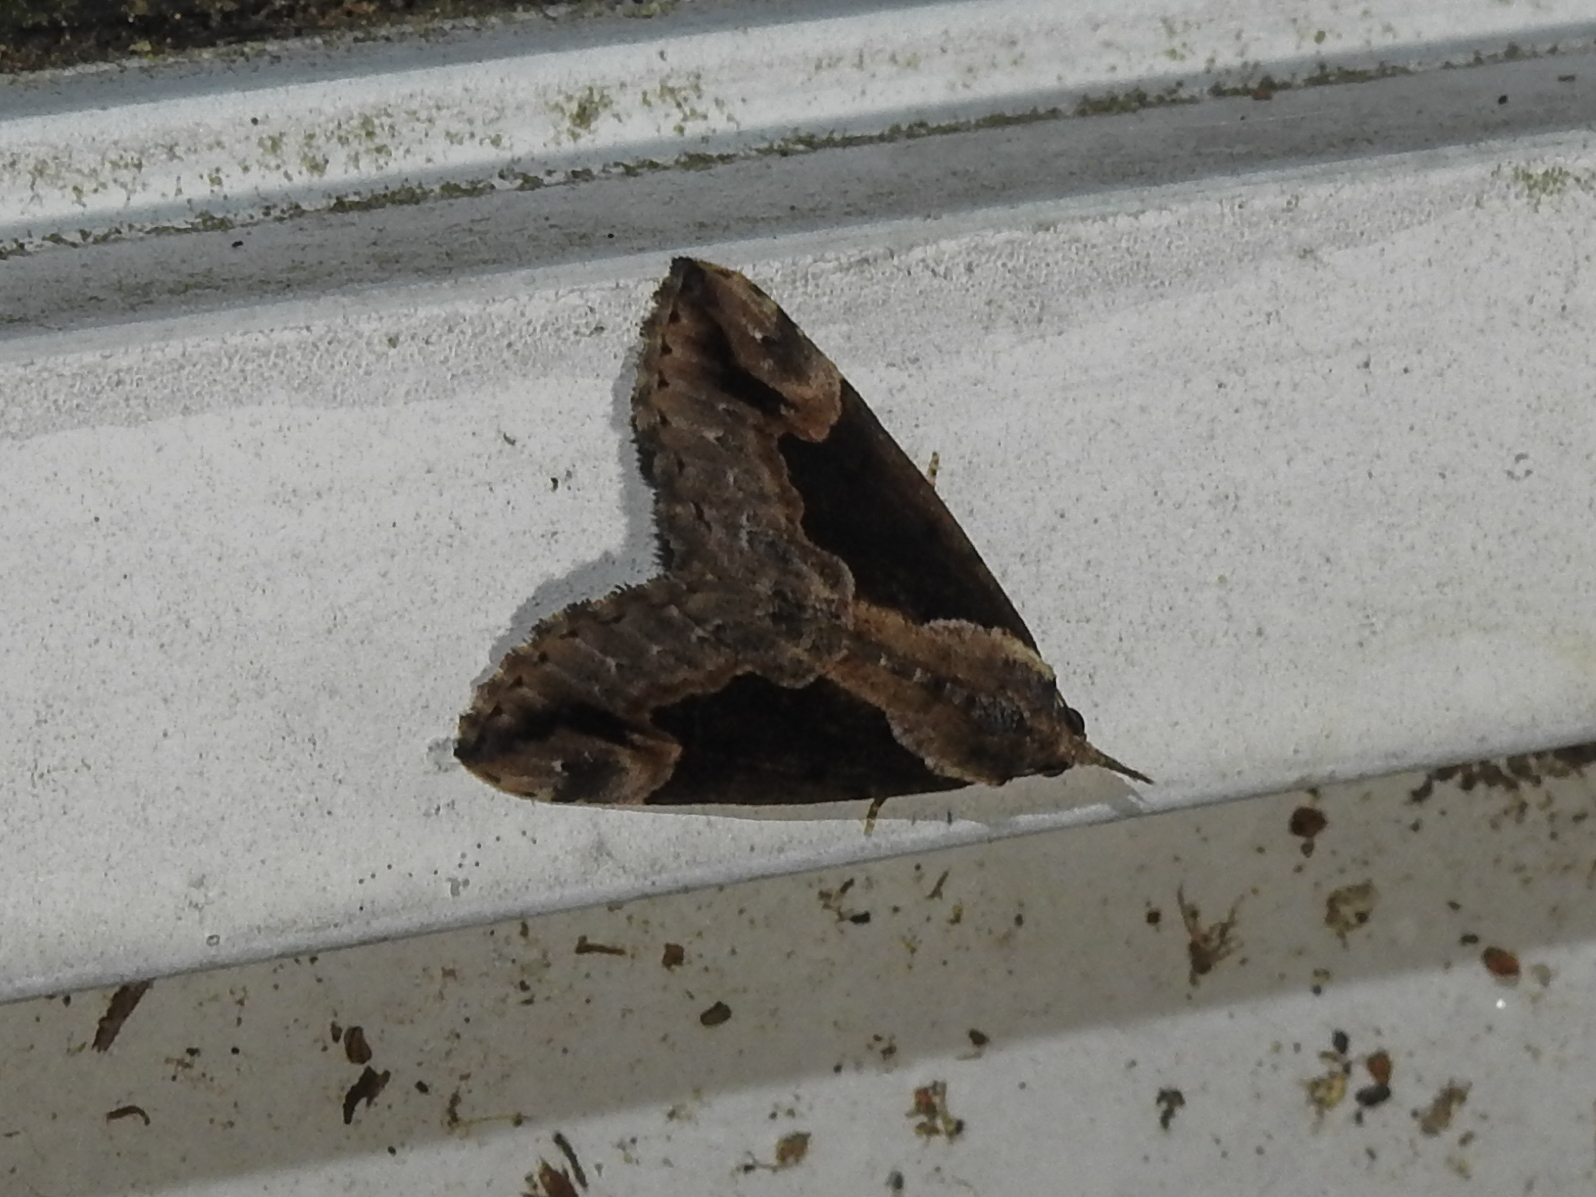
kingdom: Animalia
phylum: Arthropoda
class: Insecta
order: Lepidoptera
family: Erebidae
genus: Hypena
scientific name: Hypena baltimoralis
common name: Baltimore snout
